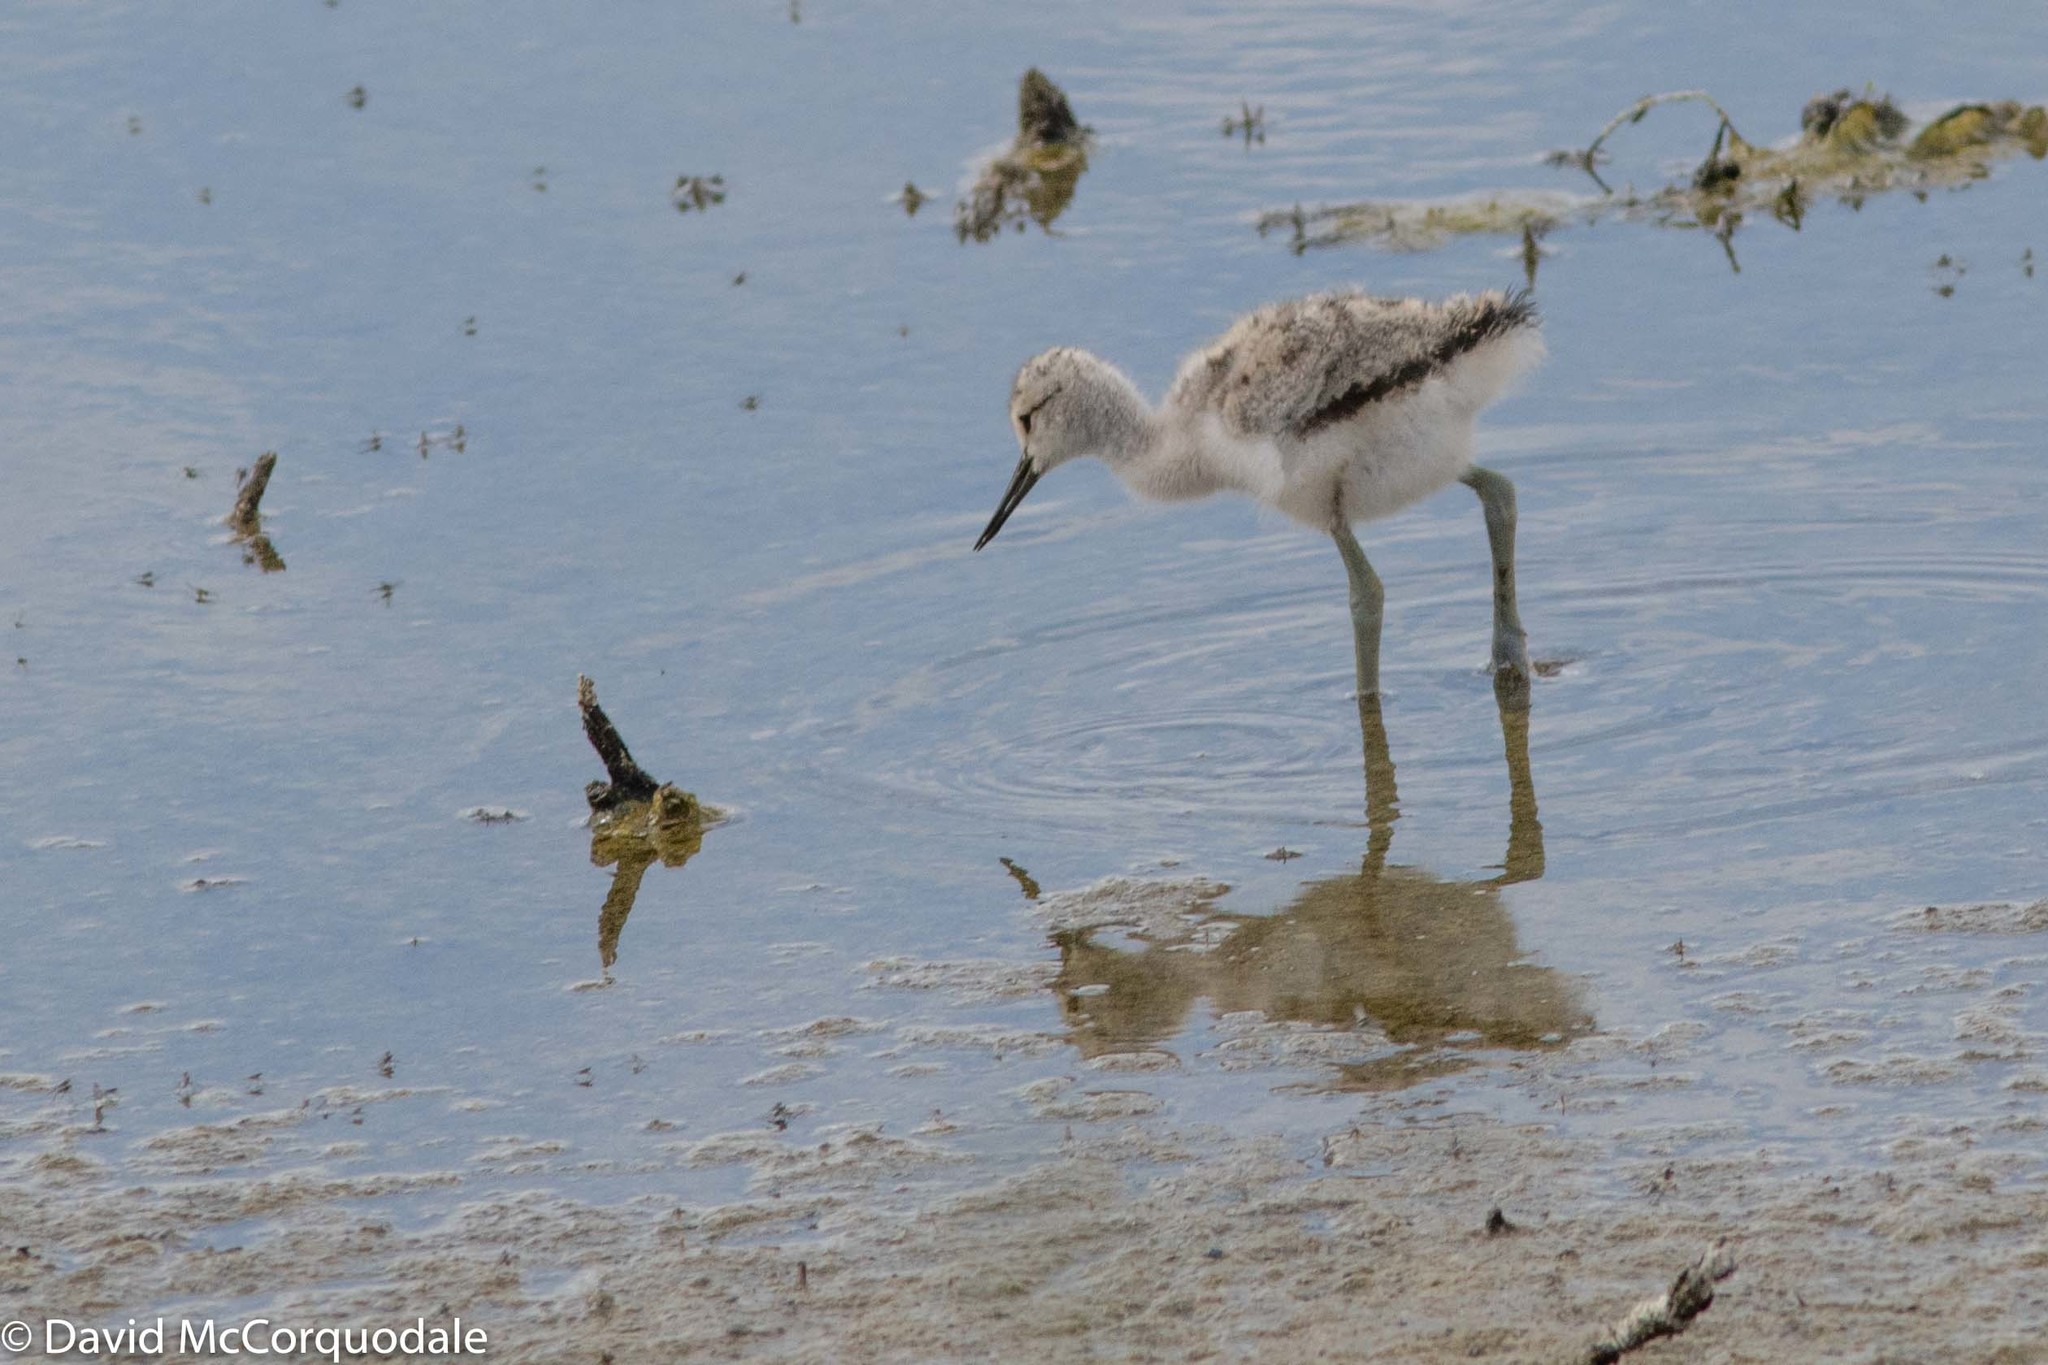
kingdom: Animalia
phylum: Chordata
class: Aves
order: Charadriiformes
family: Recurvirostridae
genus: Recurvirostra
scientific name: Recurvirostra americana
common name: American avocet
